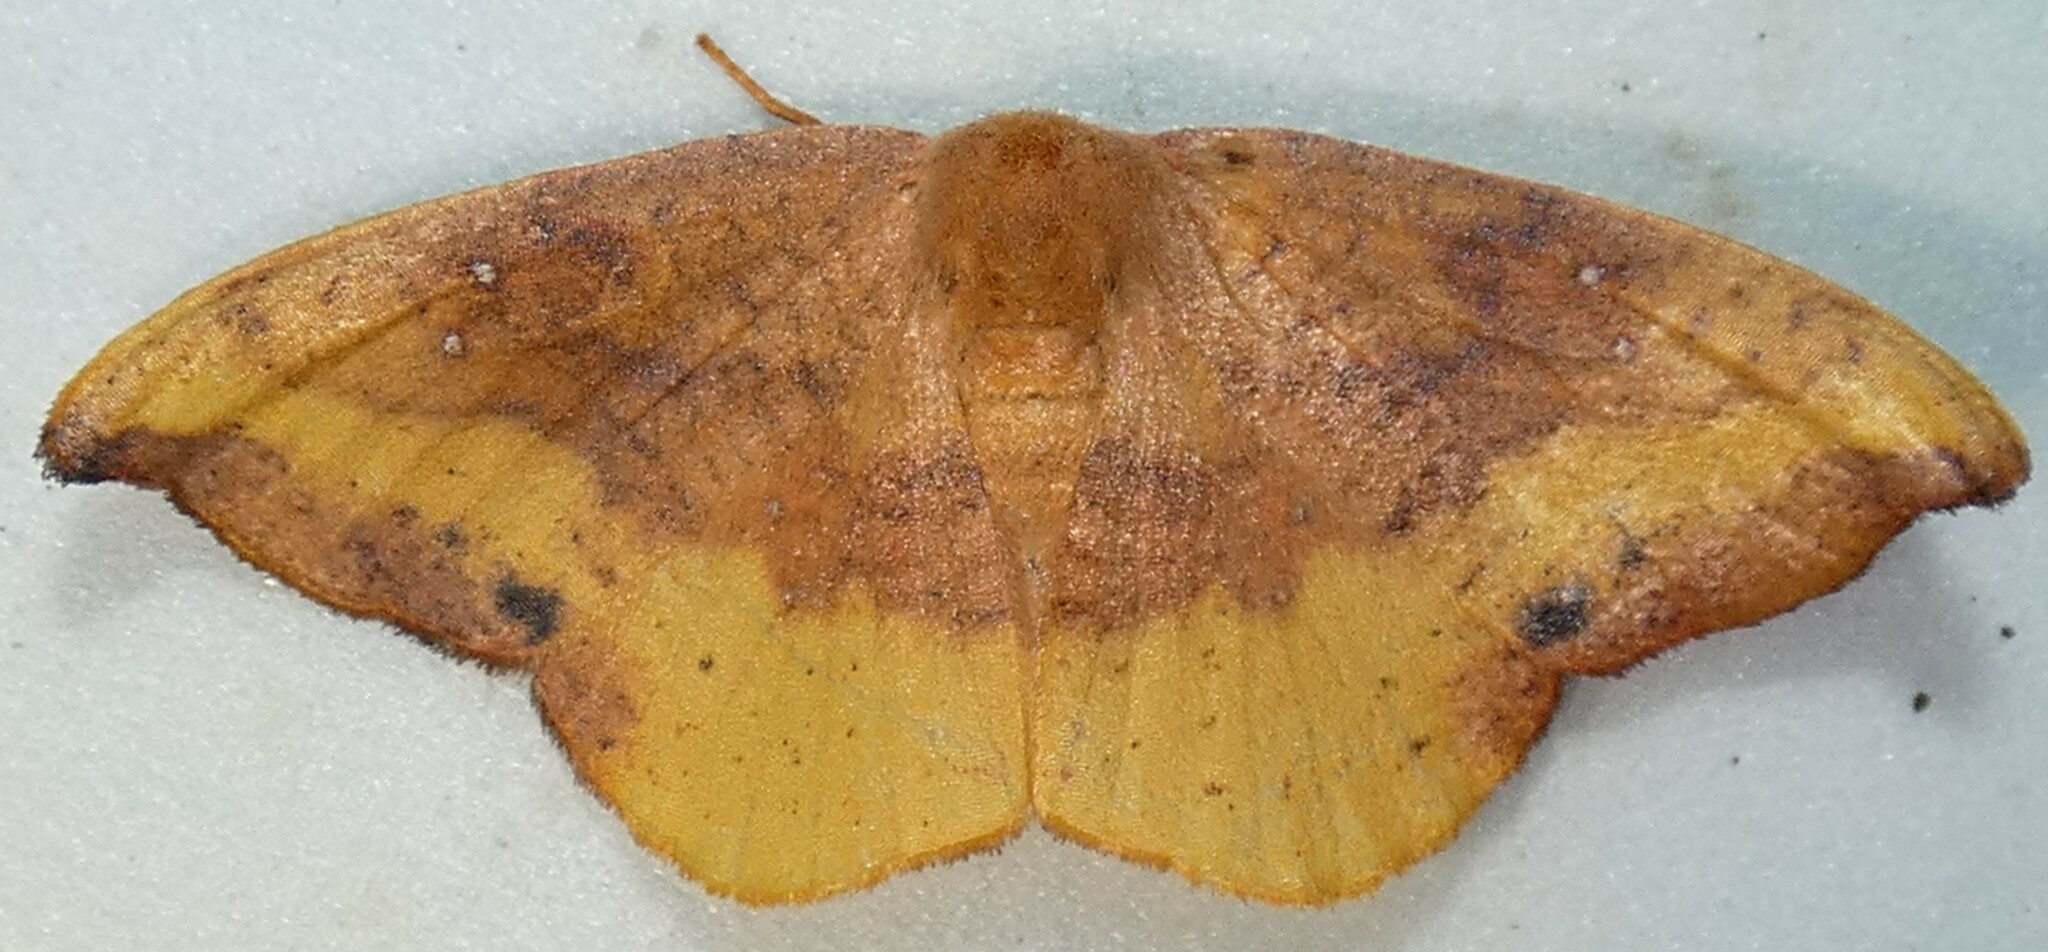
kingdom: Animalia
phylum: Arthropoda
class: Insecta
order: Lepidoptera
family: Drepanidae
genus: Oreta
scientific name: Oreta rosea
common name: Rose hooktip
